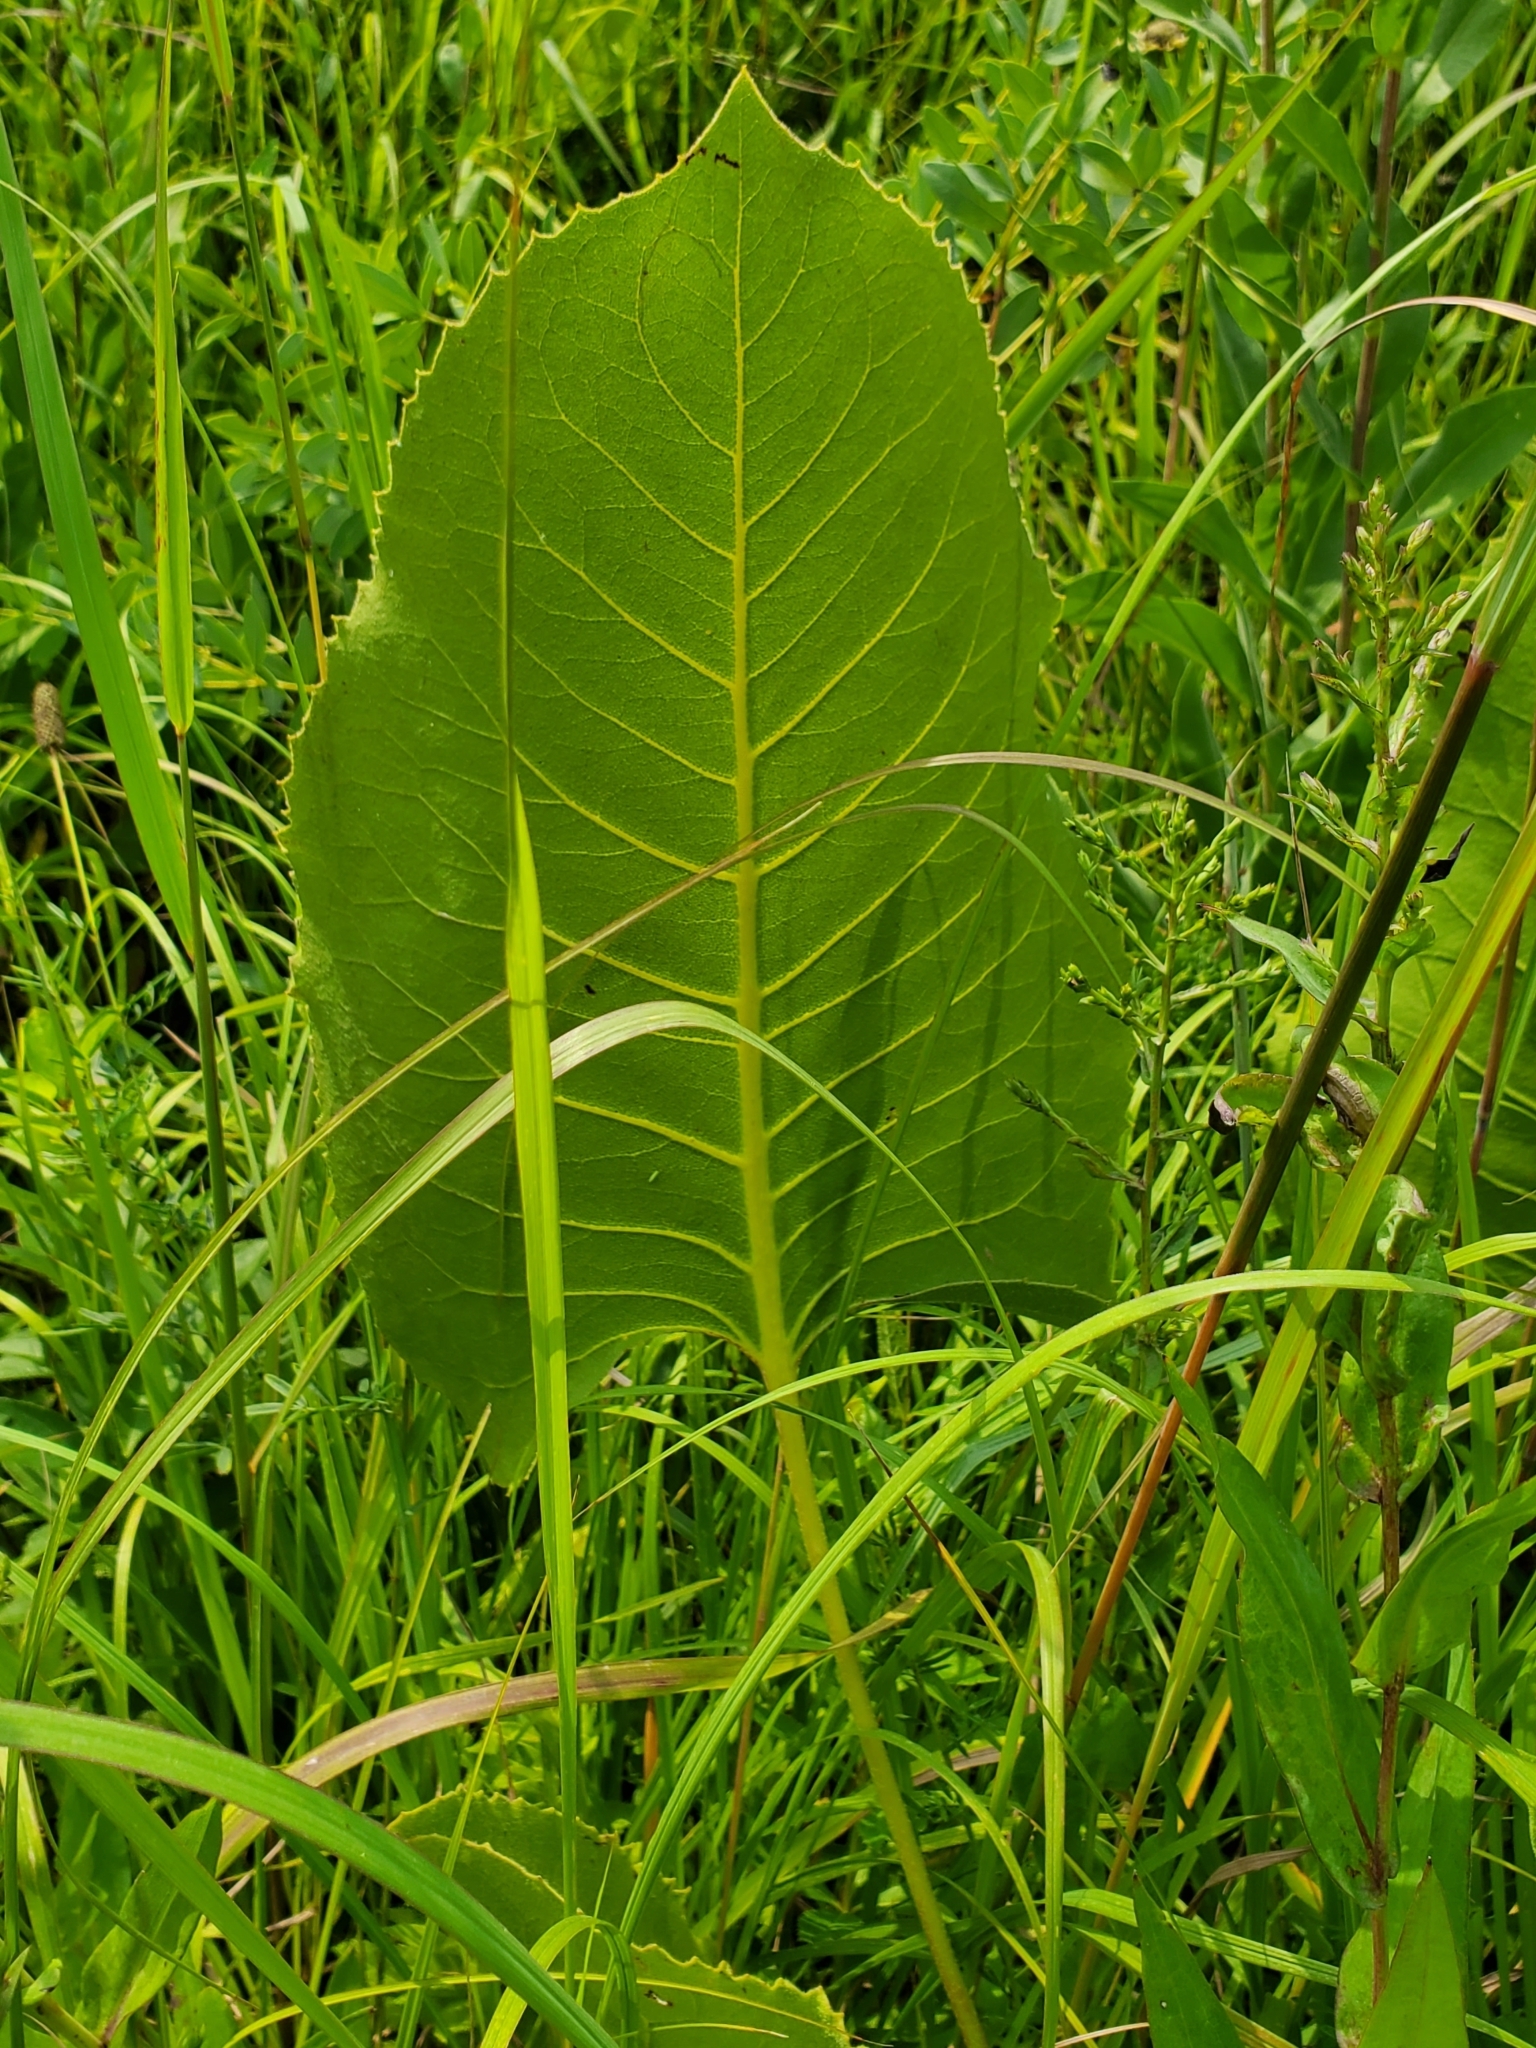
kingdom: Plantae
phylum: Tracheophyta
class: Magnoliopsida
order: Asterales
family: Asteraceae
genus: Silphium
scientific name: Silphium terebinthinaceum
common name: Basal-leaf rosinweed
